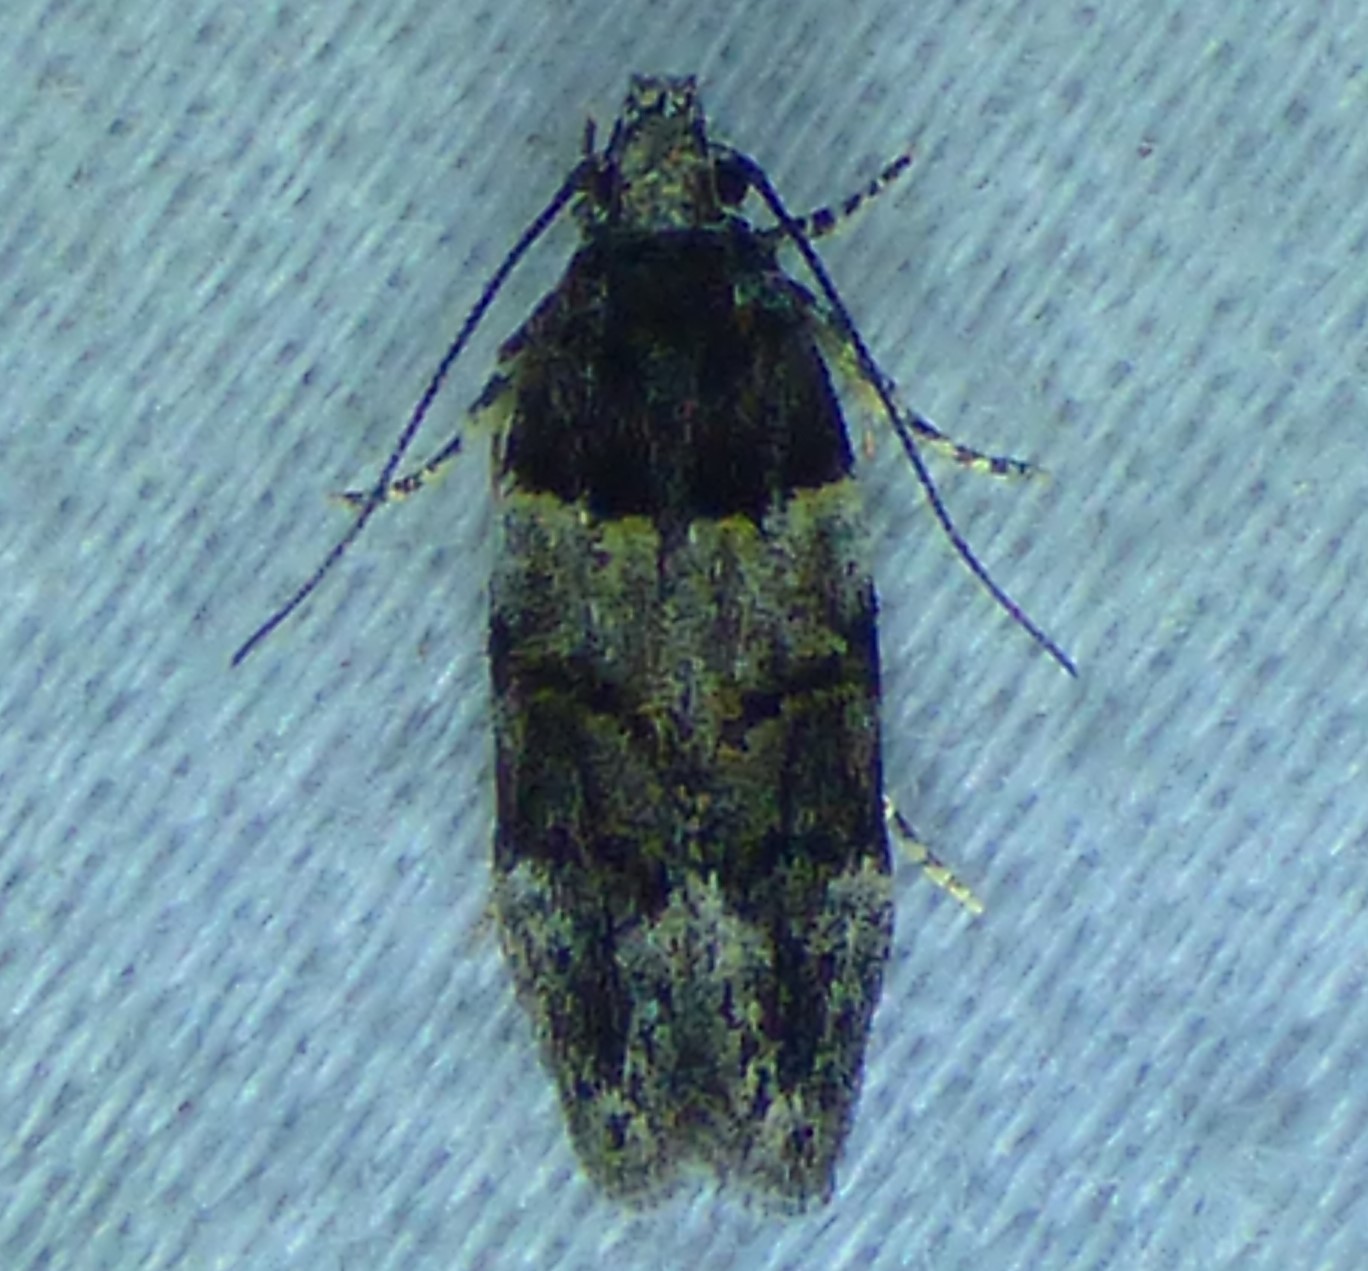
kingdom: Animalia
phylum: Arthropoda
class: Insecta
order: Lepidoptera
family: Gelechiidae
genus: Pubitelphusa
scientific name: Pubitelphusa latifasciella
